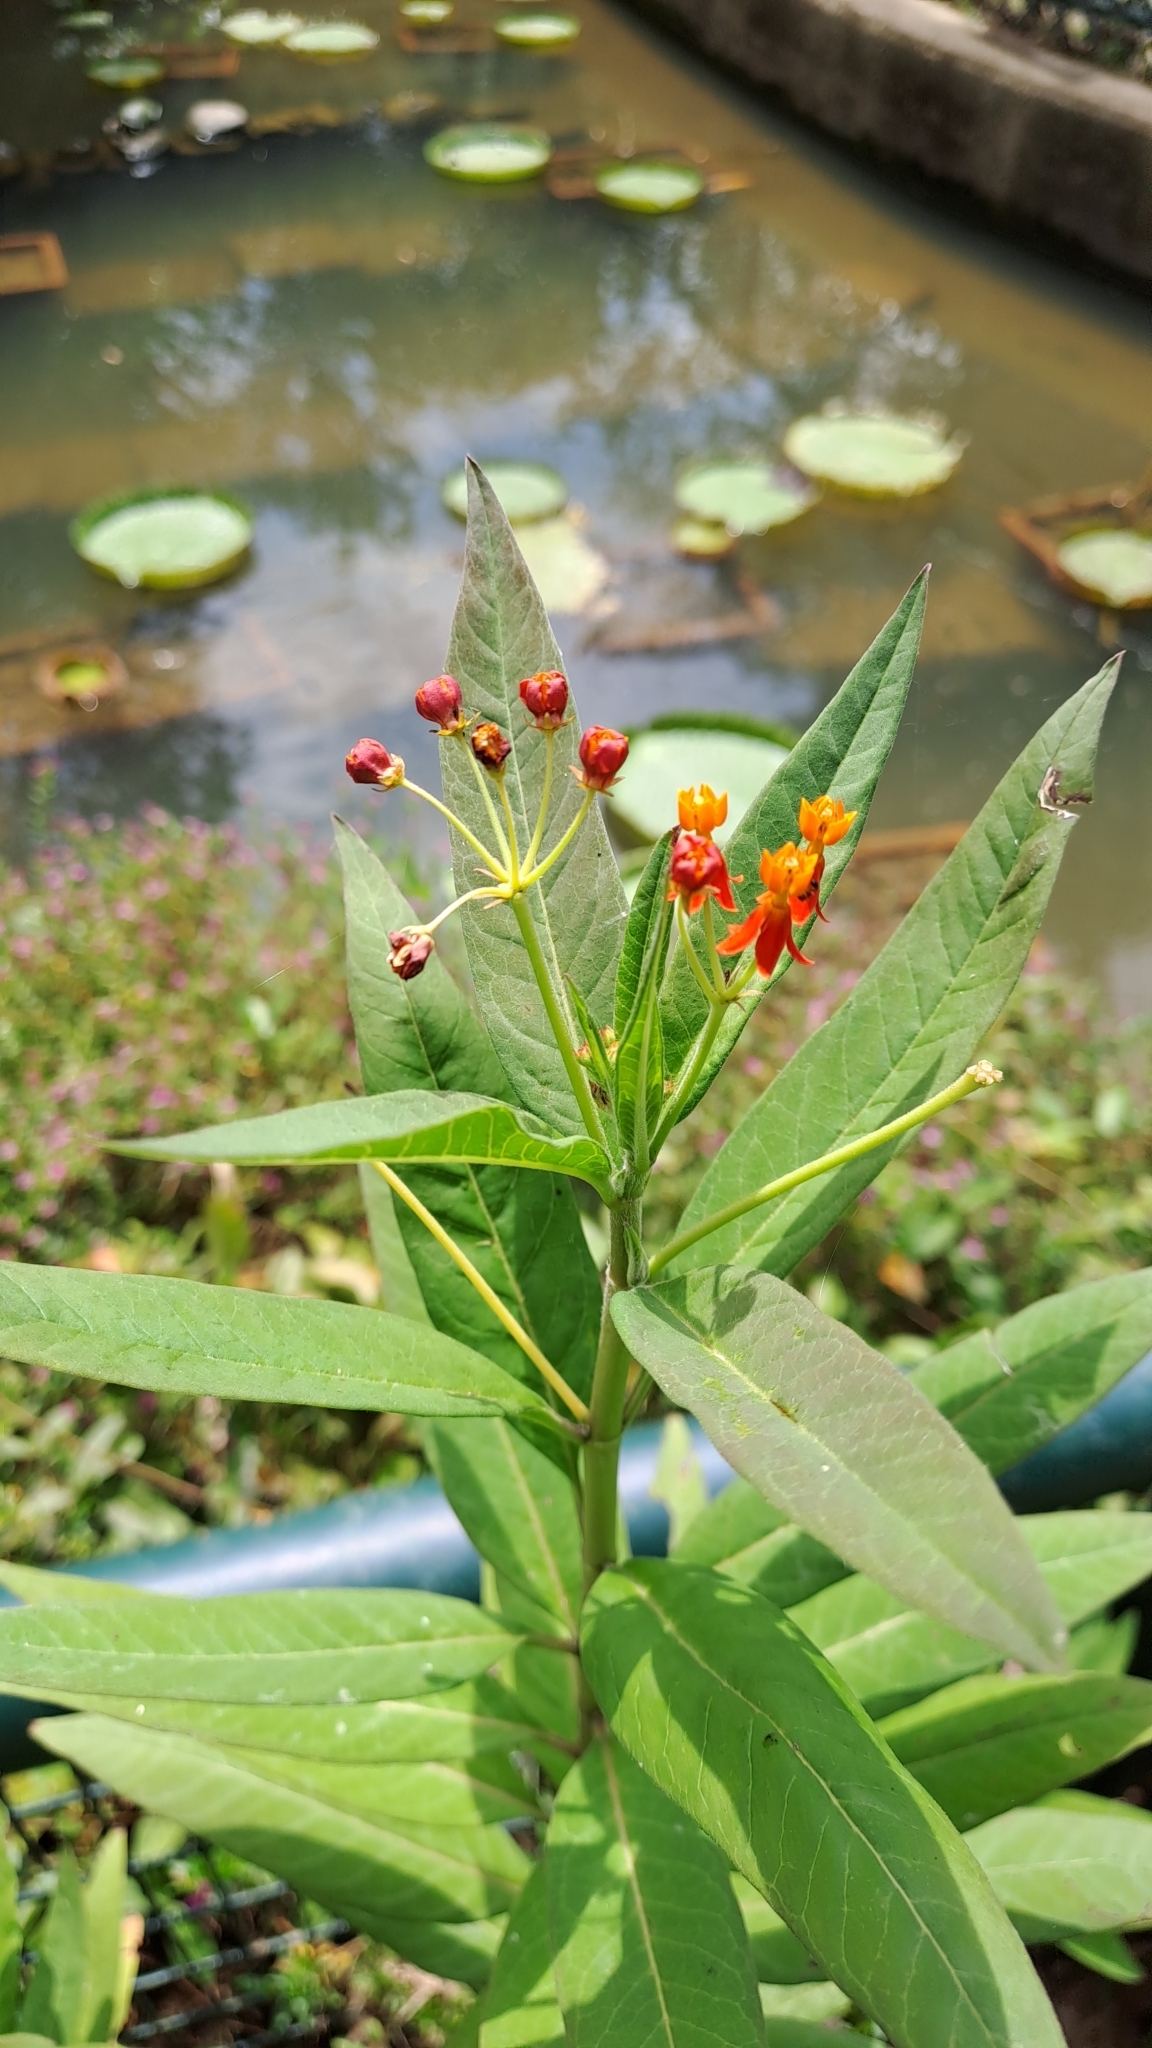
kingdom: Plantae
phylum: Tracheophyta
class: Magnoliopsida
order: Gentianales
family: Apocynaceae
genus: Asclepias
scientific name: Asclepias curassavica
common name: Bloodflower
